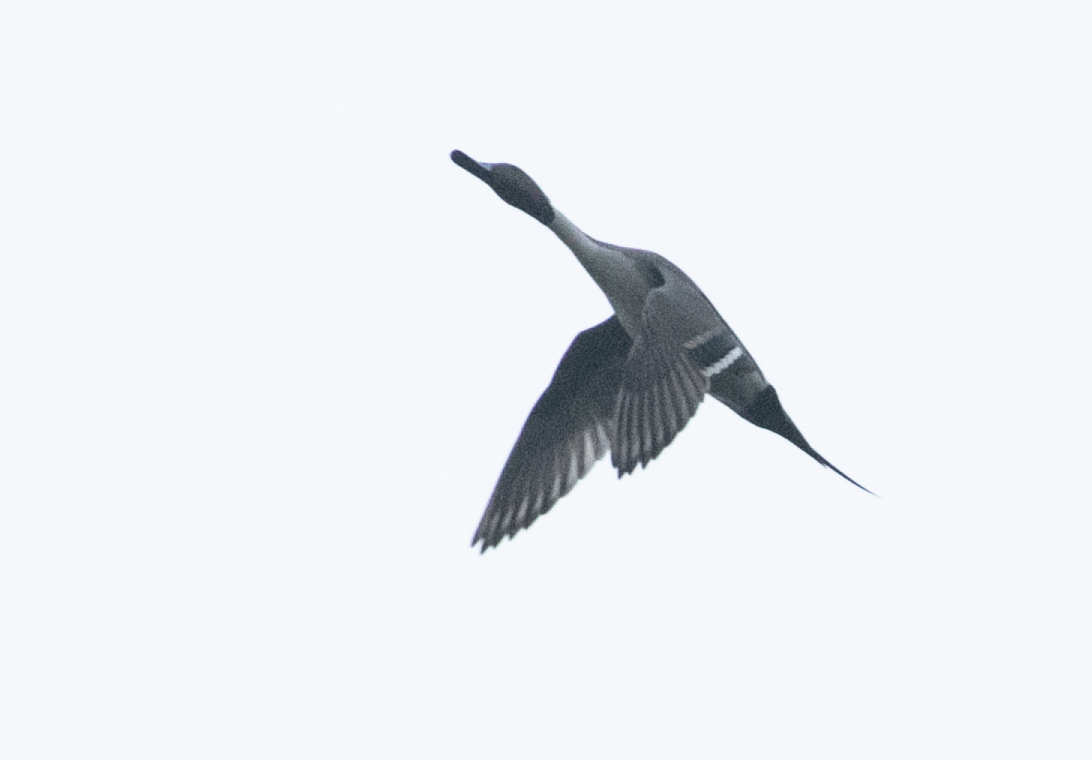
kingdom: Animalia
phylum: Chordata
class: Aves
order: Anseriformes
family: Anatidae
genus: Anas
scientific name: Anas acuta
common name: Northern pintail
